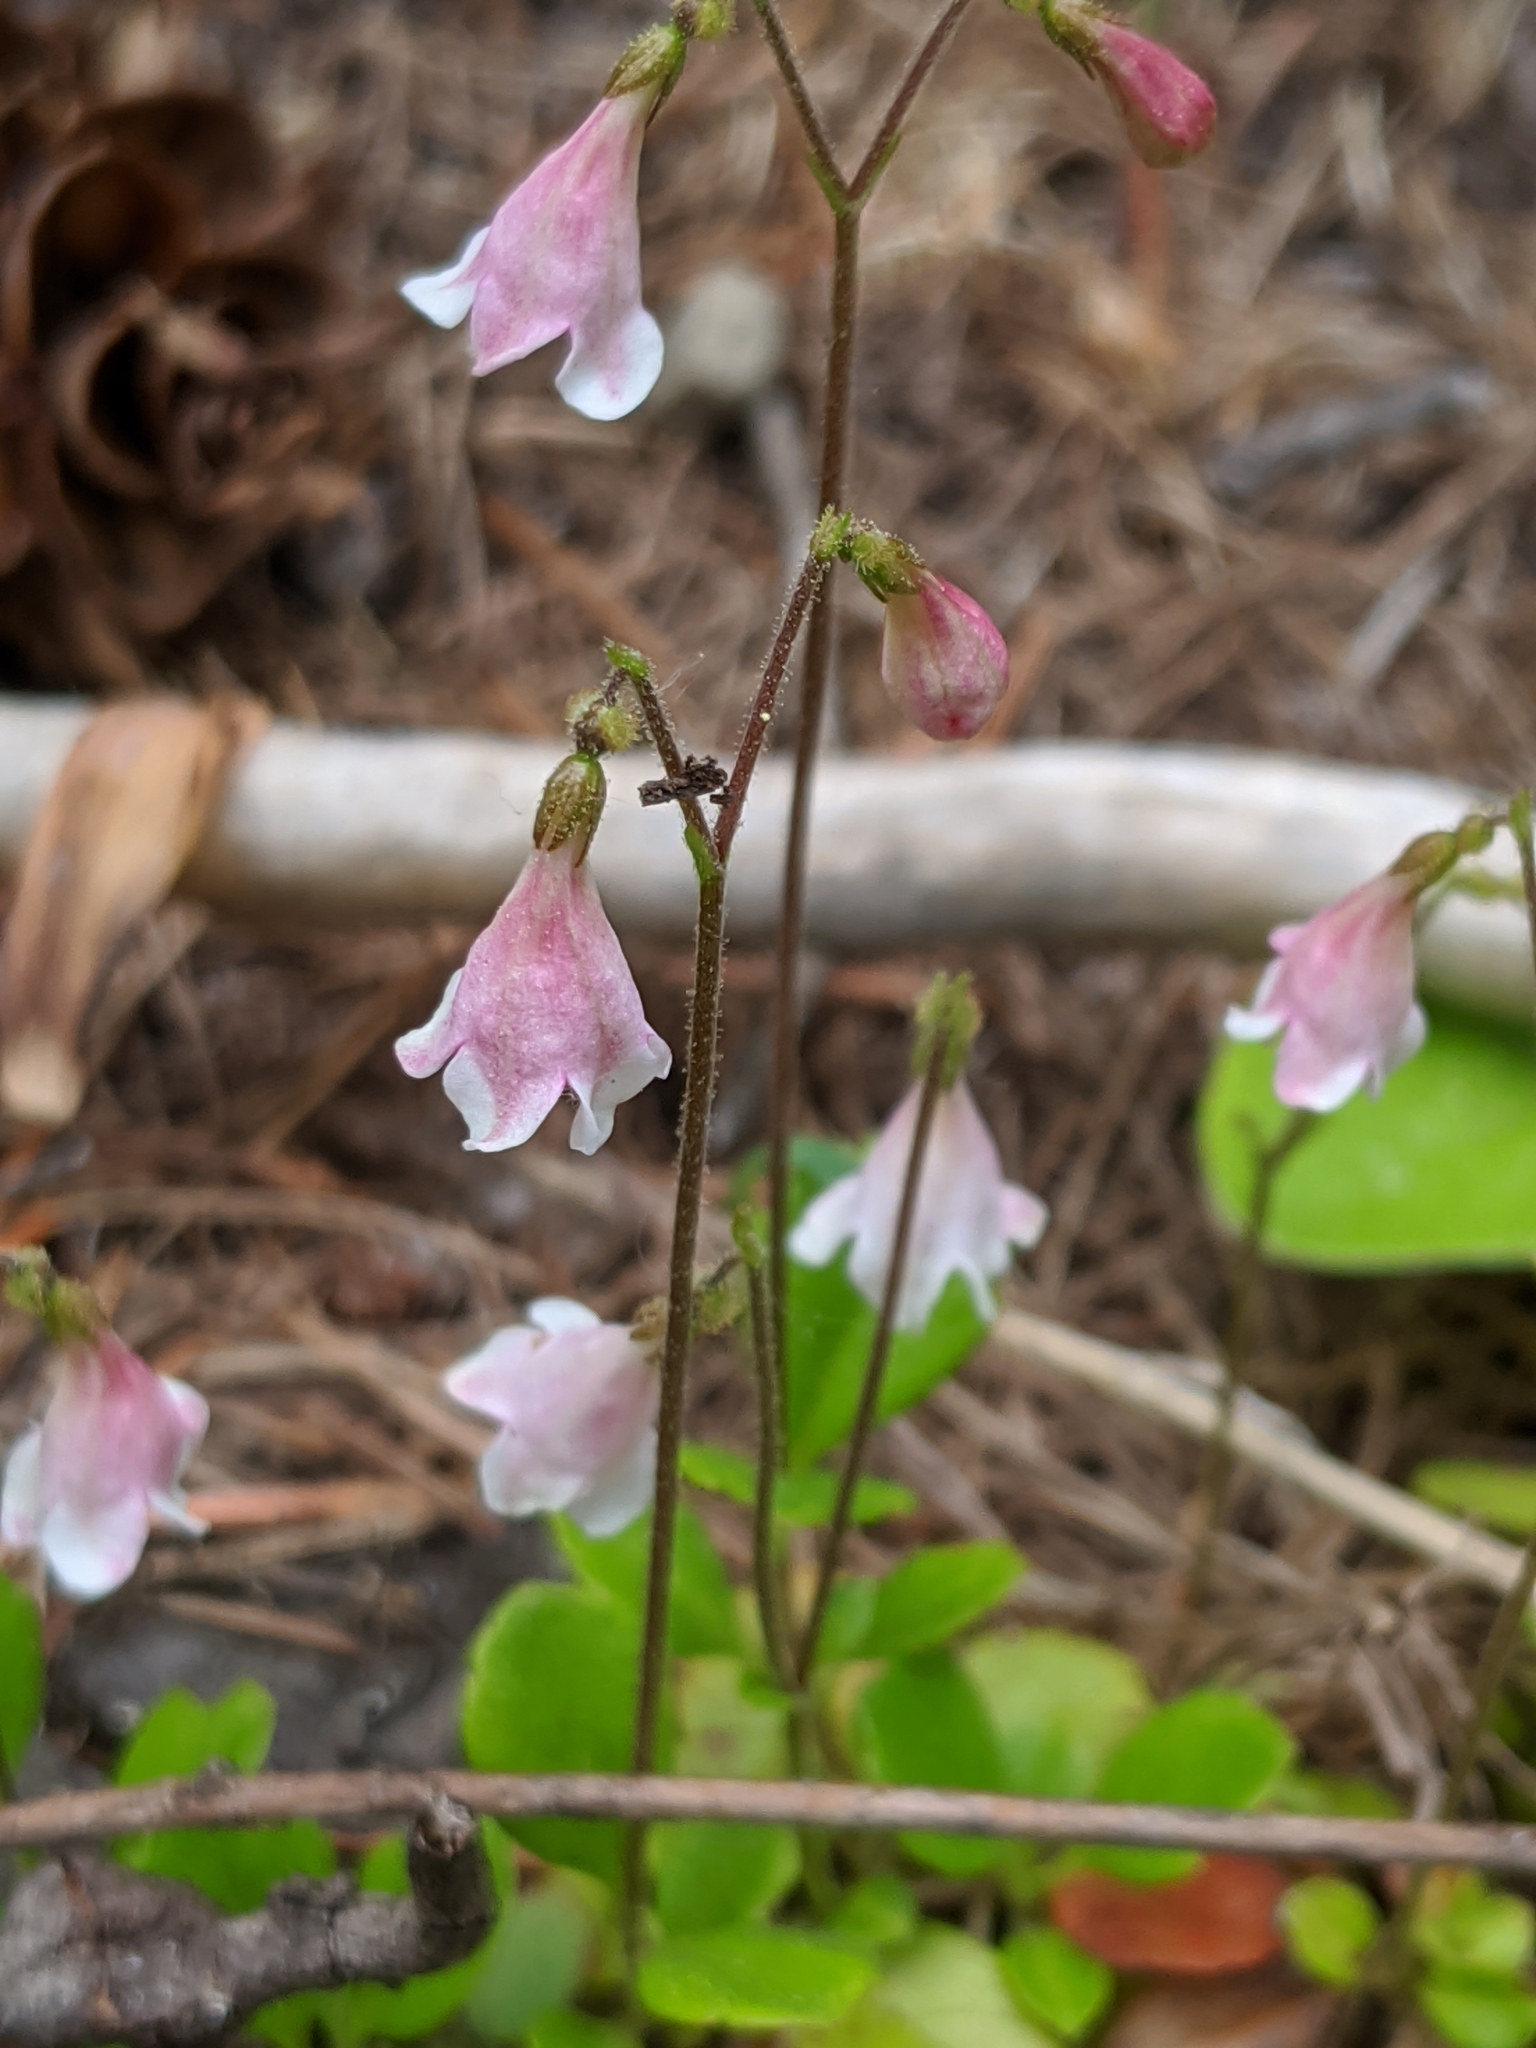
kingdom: Plantae
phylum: Tracheophyta
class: Magnoliopsida
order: Dipsacales
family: Caprifoliaceae
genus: Linnaea
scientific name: Linnaea borealis
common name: Twinflower
